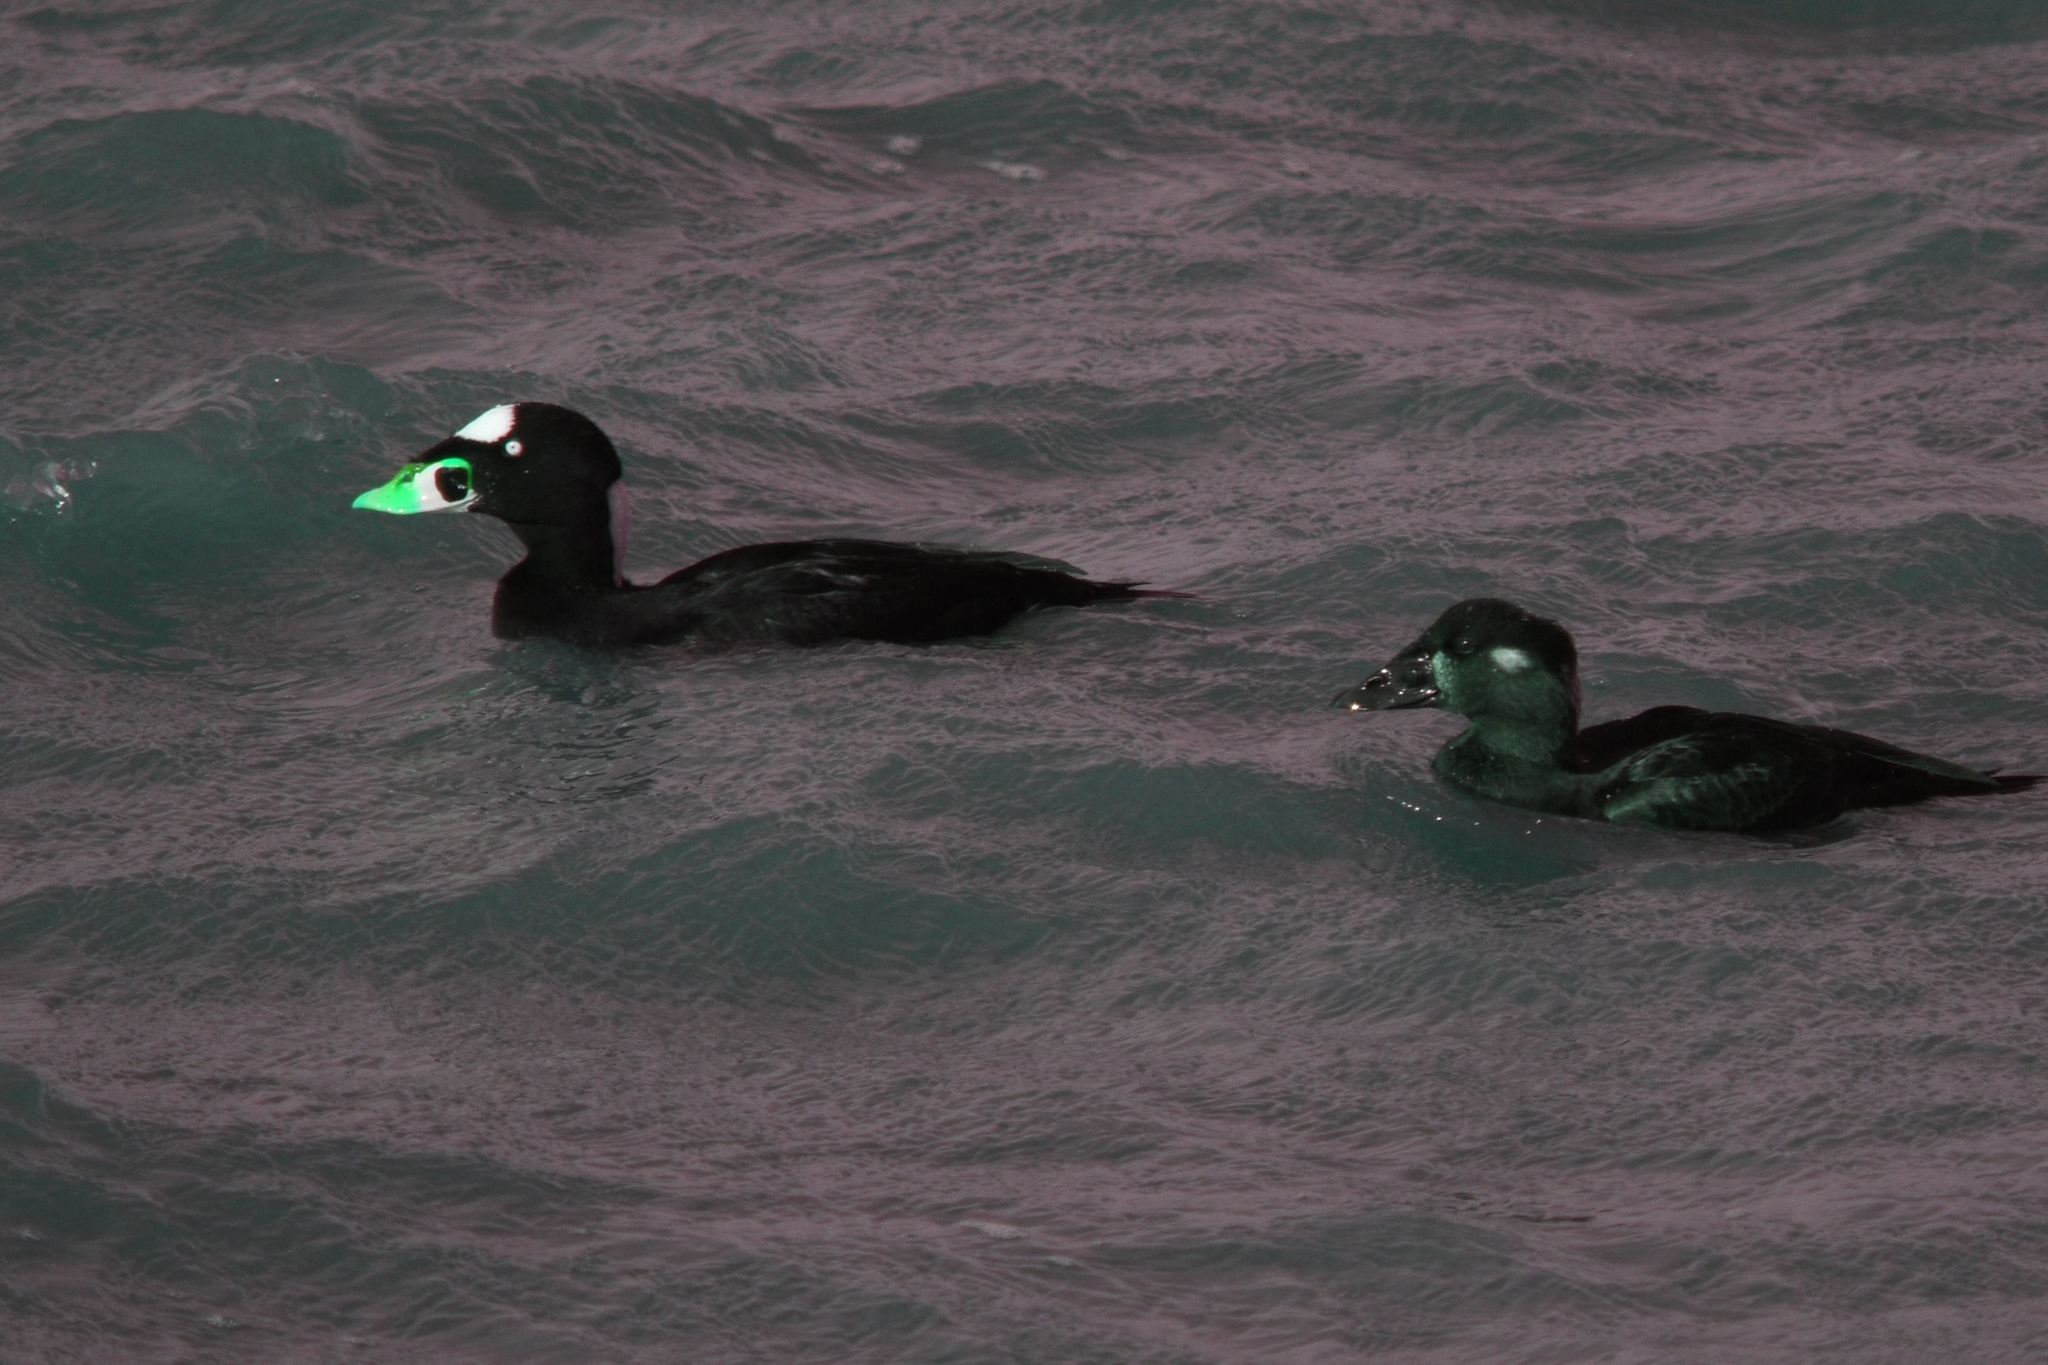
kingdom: Animalia
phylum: Chordata
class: Aves
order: Anseriformes
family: Anatidae
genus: Melanitta
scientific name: Melanitta perspicillata
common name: Surf scoter
